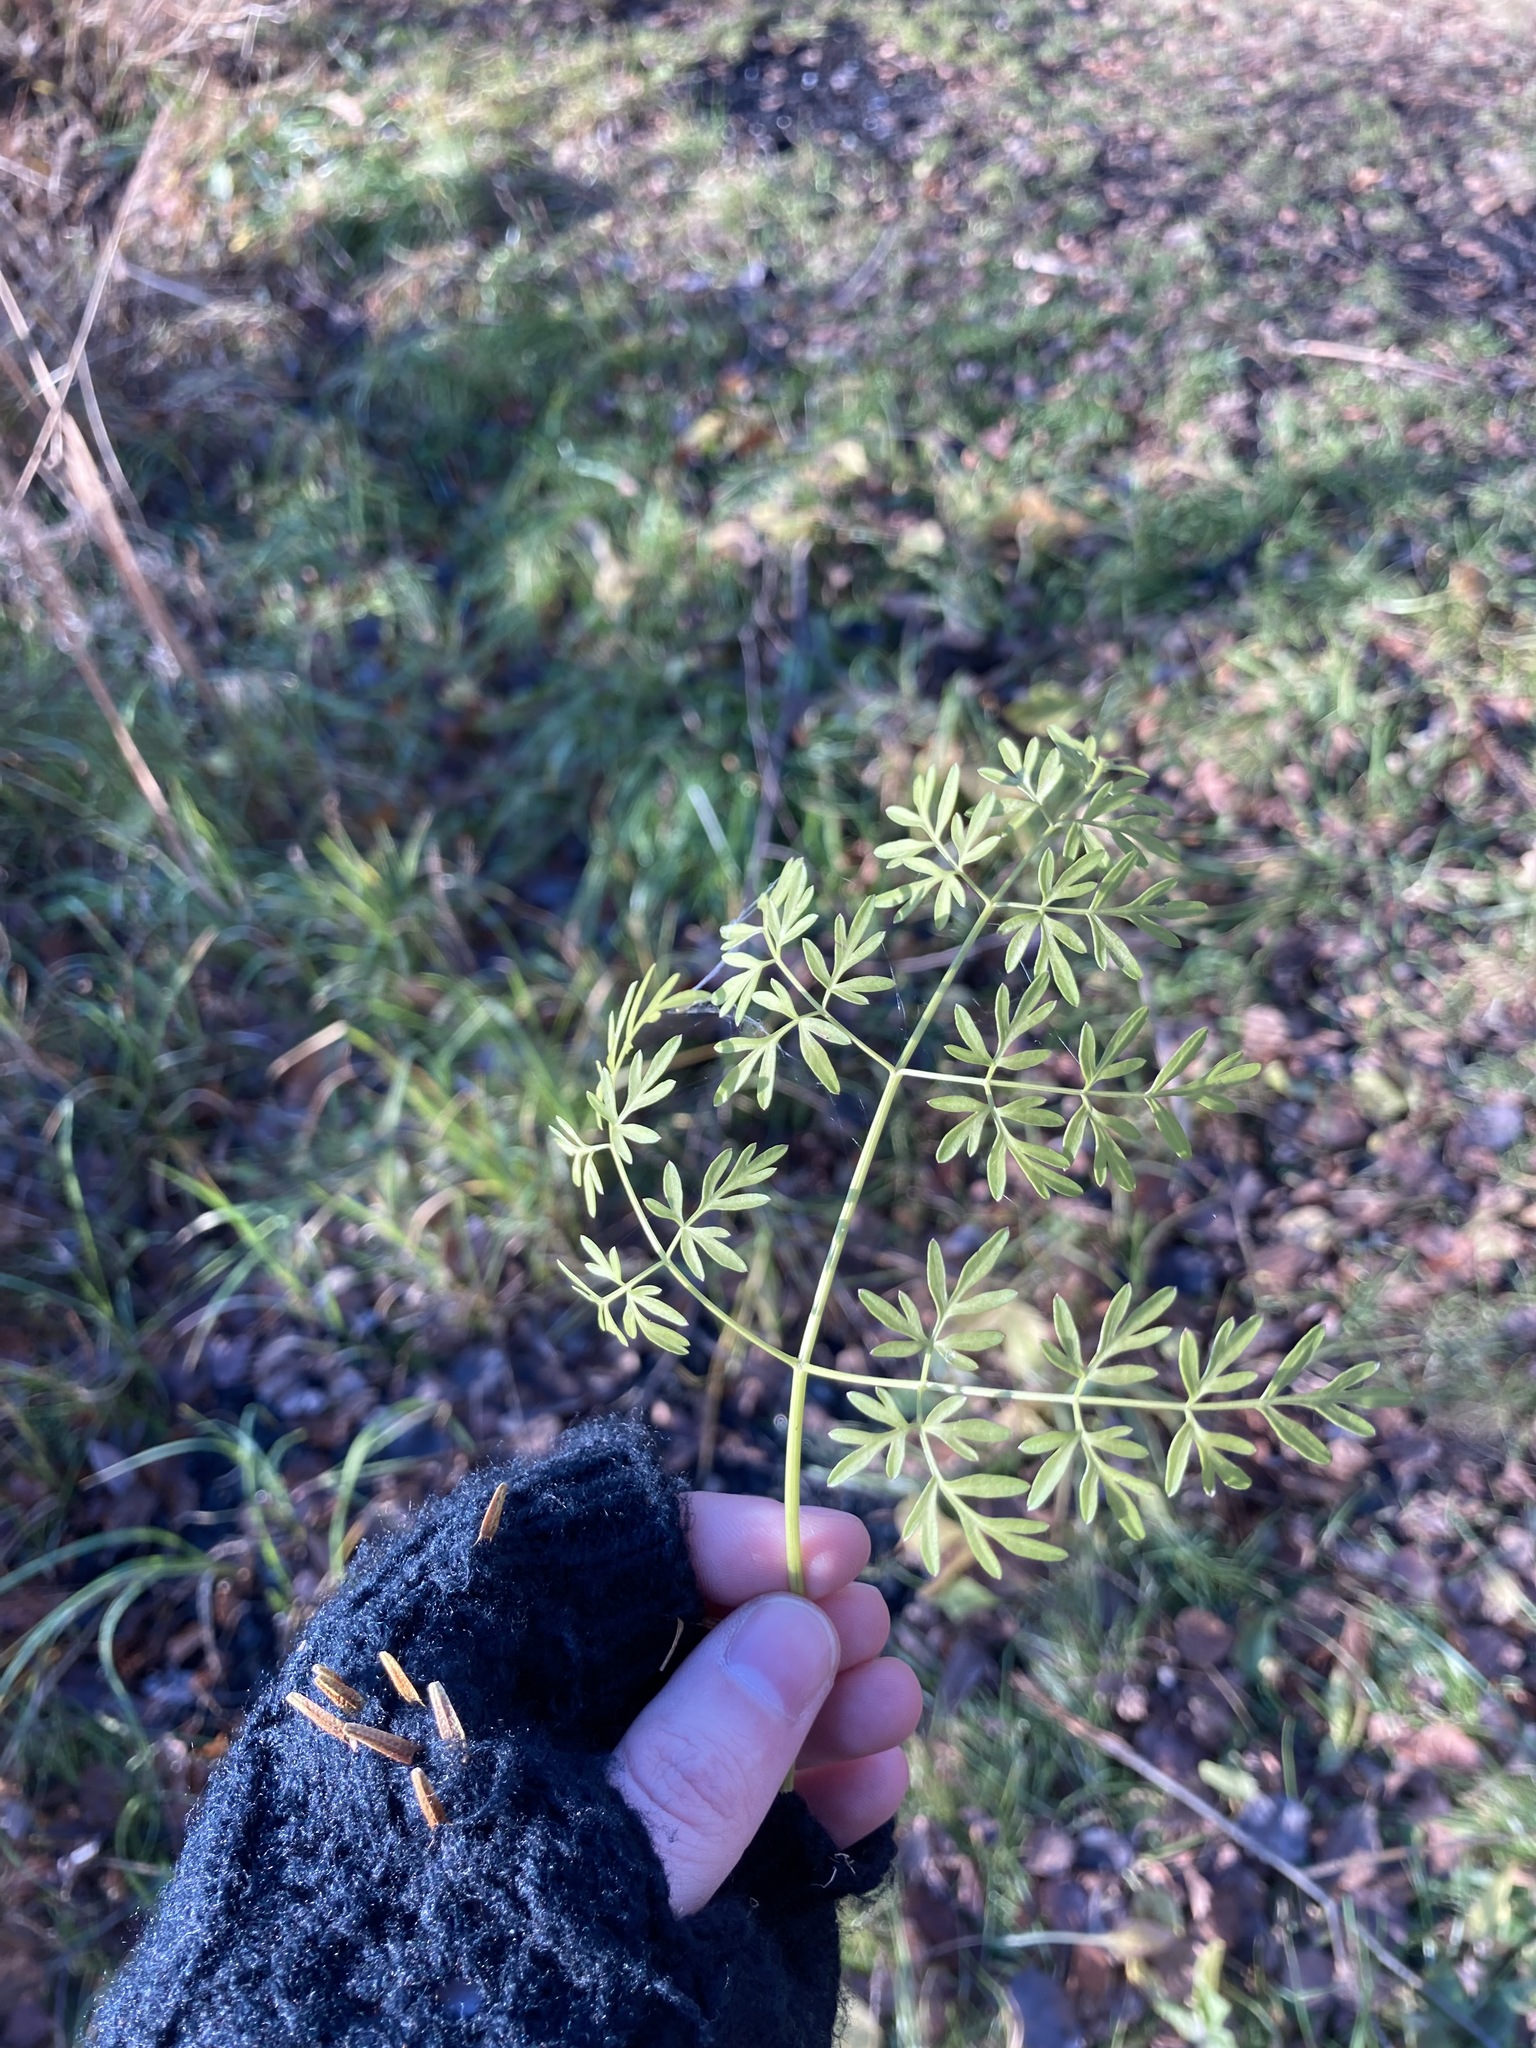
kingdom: Plantae
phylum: Tracheophyta
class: Magnoliopsida
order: Apiales
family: Apiaceae
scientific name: Apiaceae
